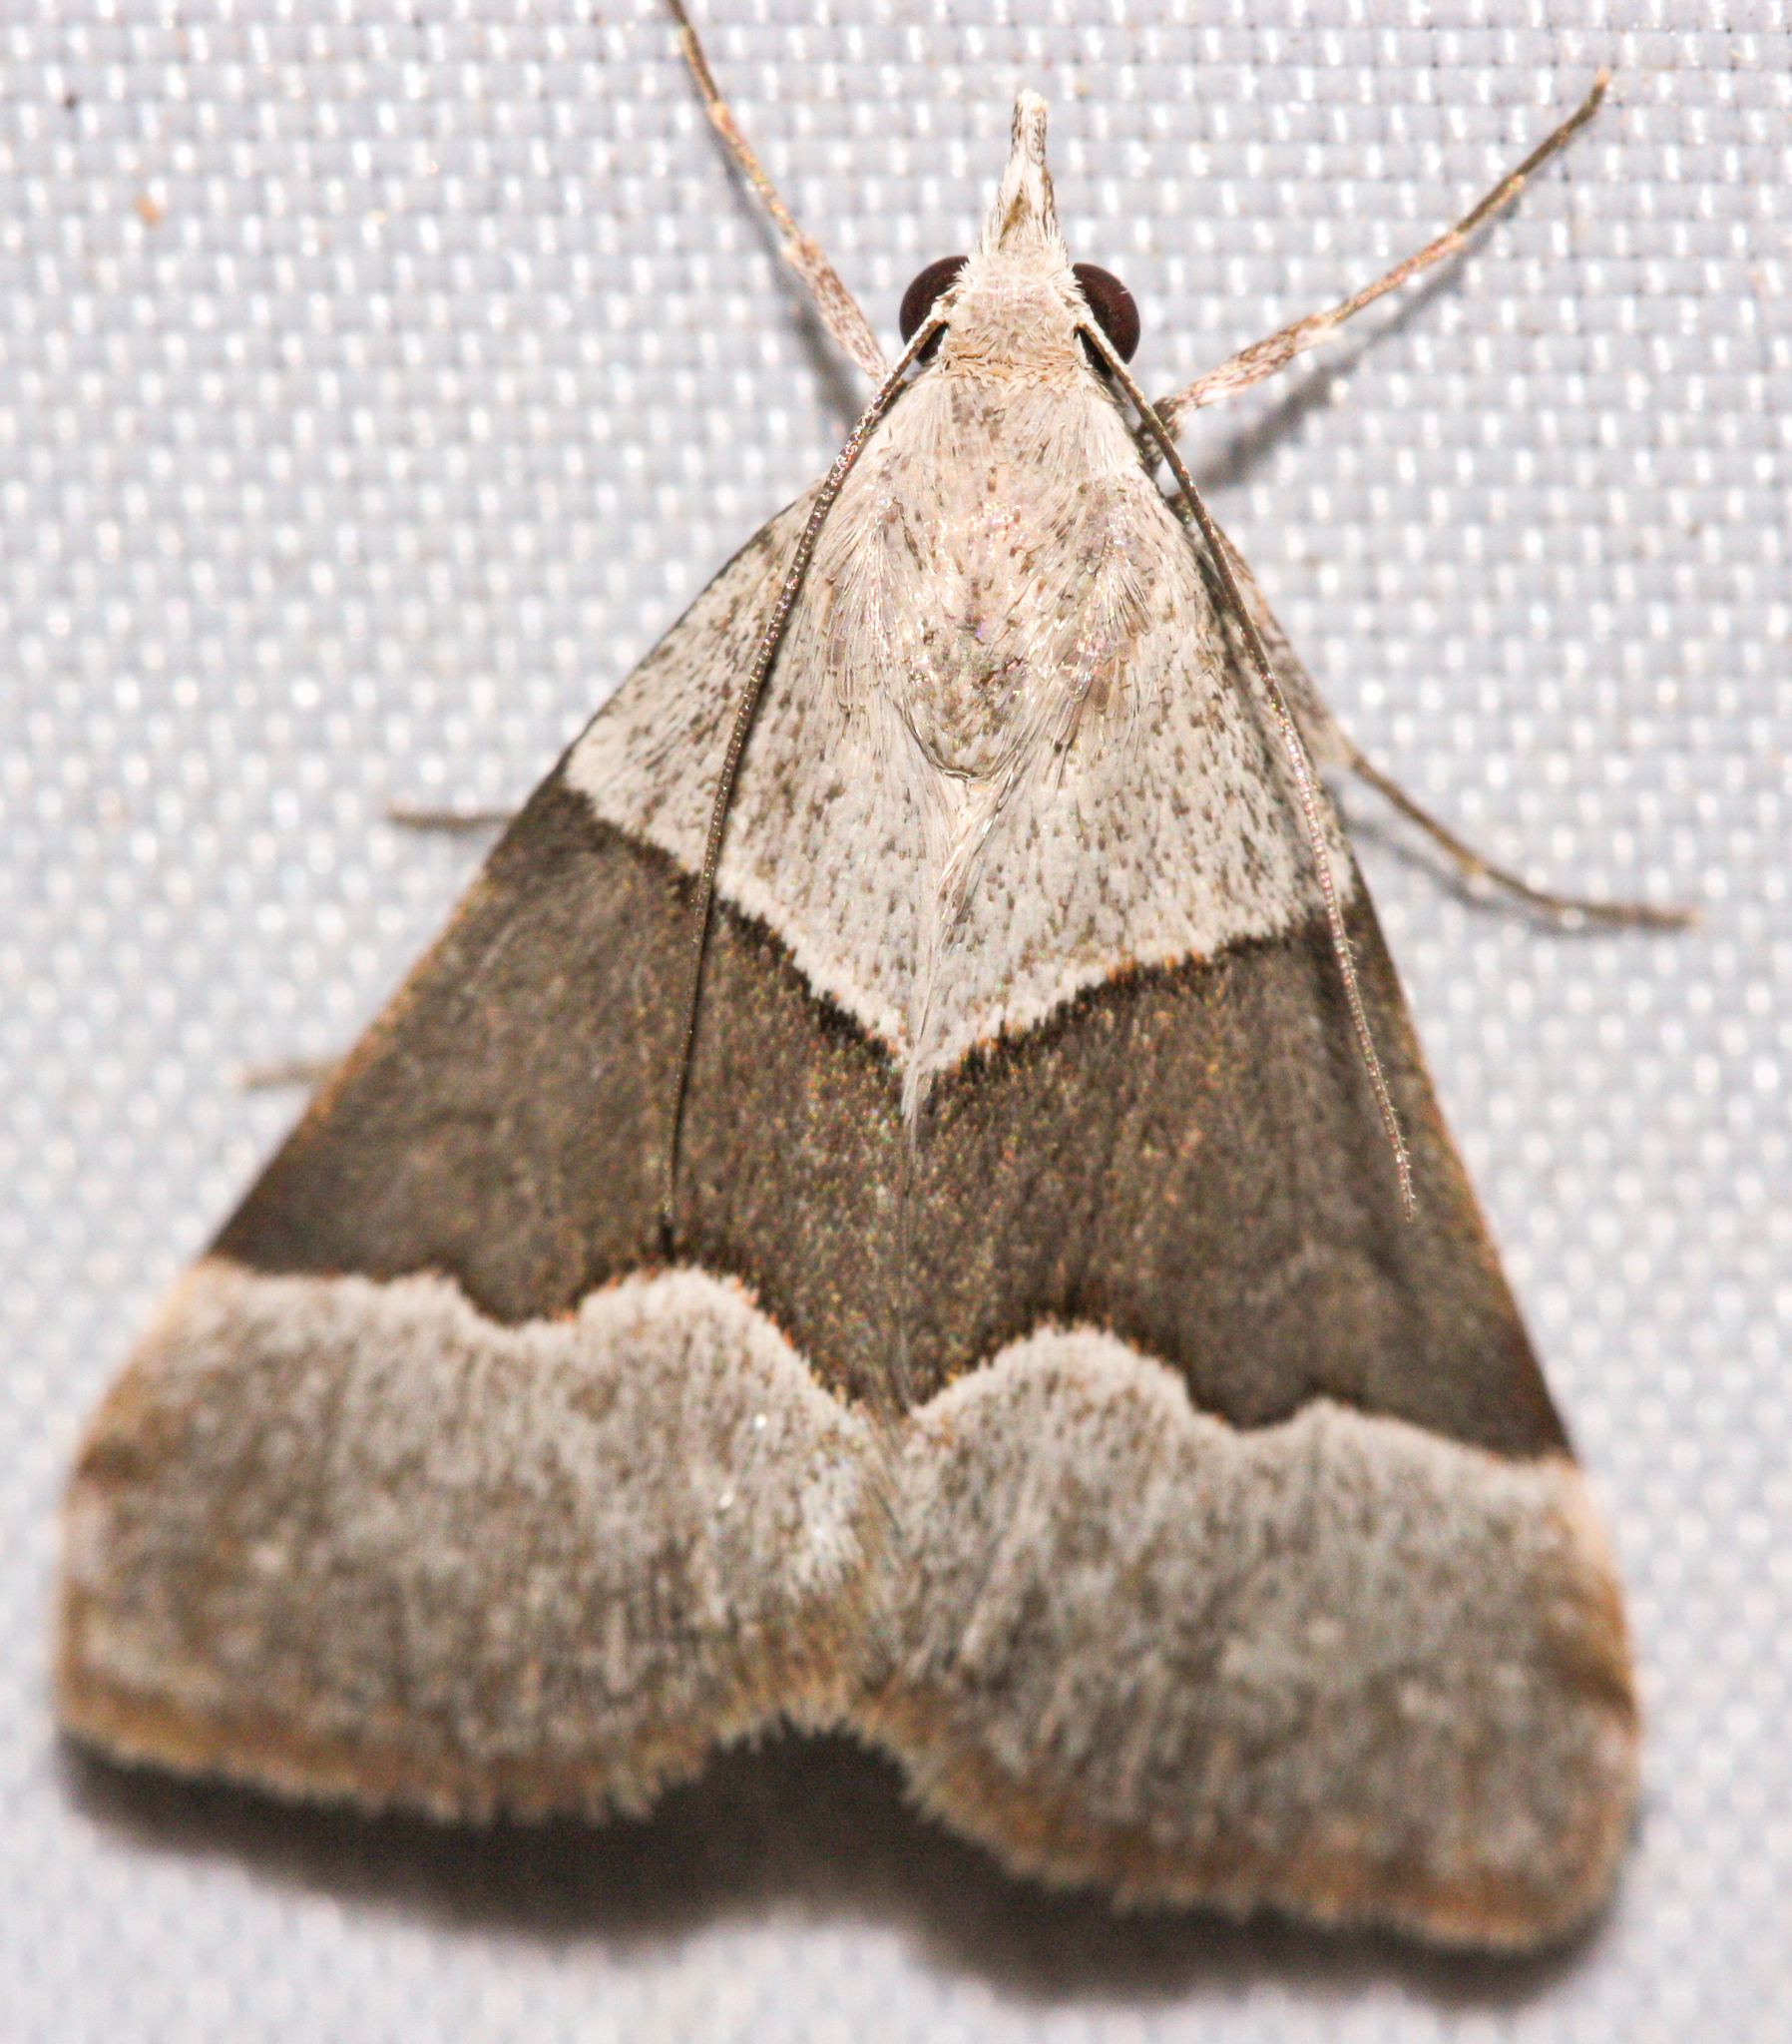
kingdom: Animalia
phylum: Arthropoda
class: Insecta
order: Lepidoptera
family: Erebidae
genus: Hemeroplanis
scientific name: Hemeroplanis incusalis
